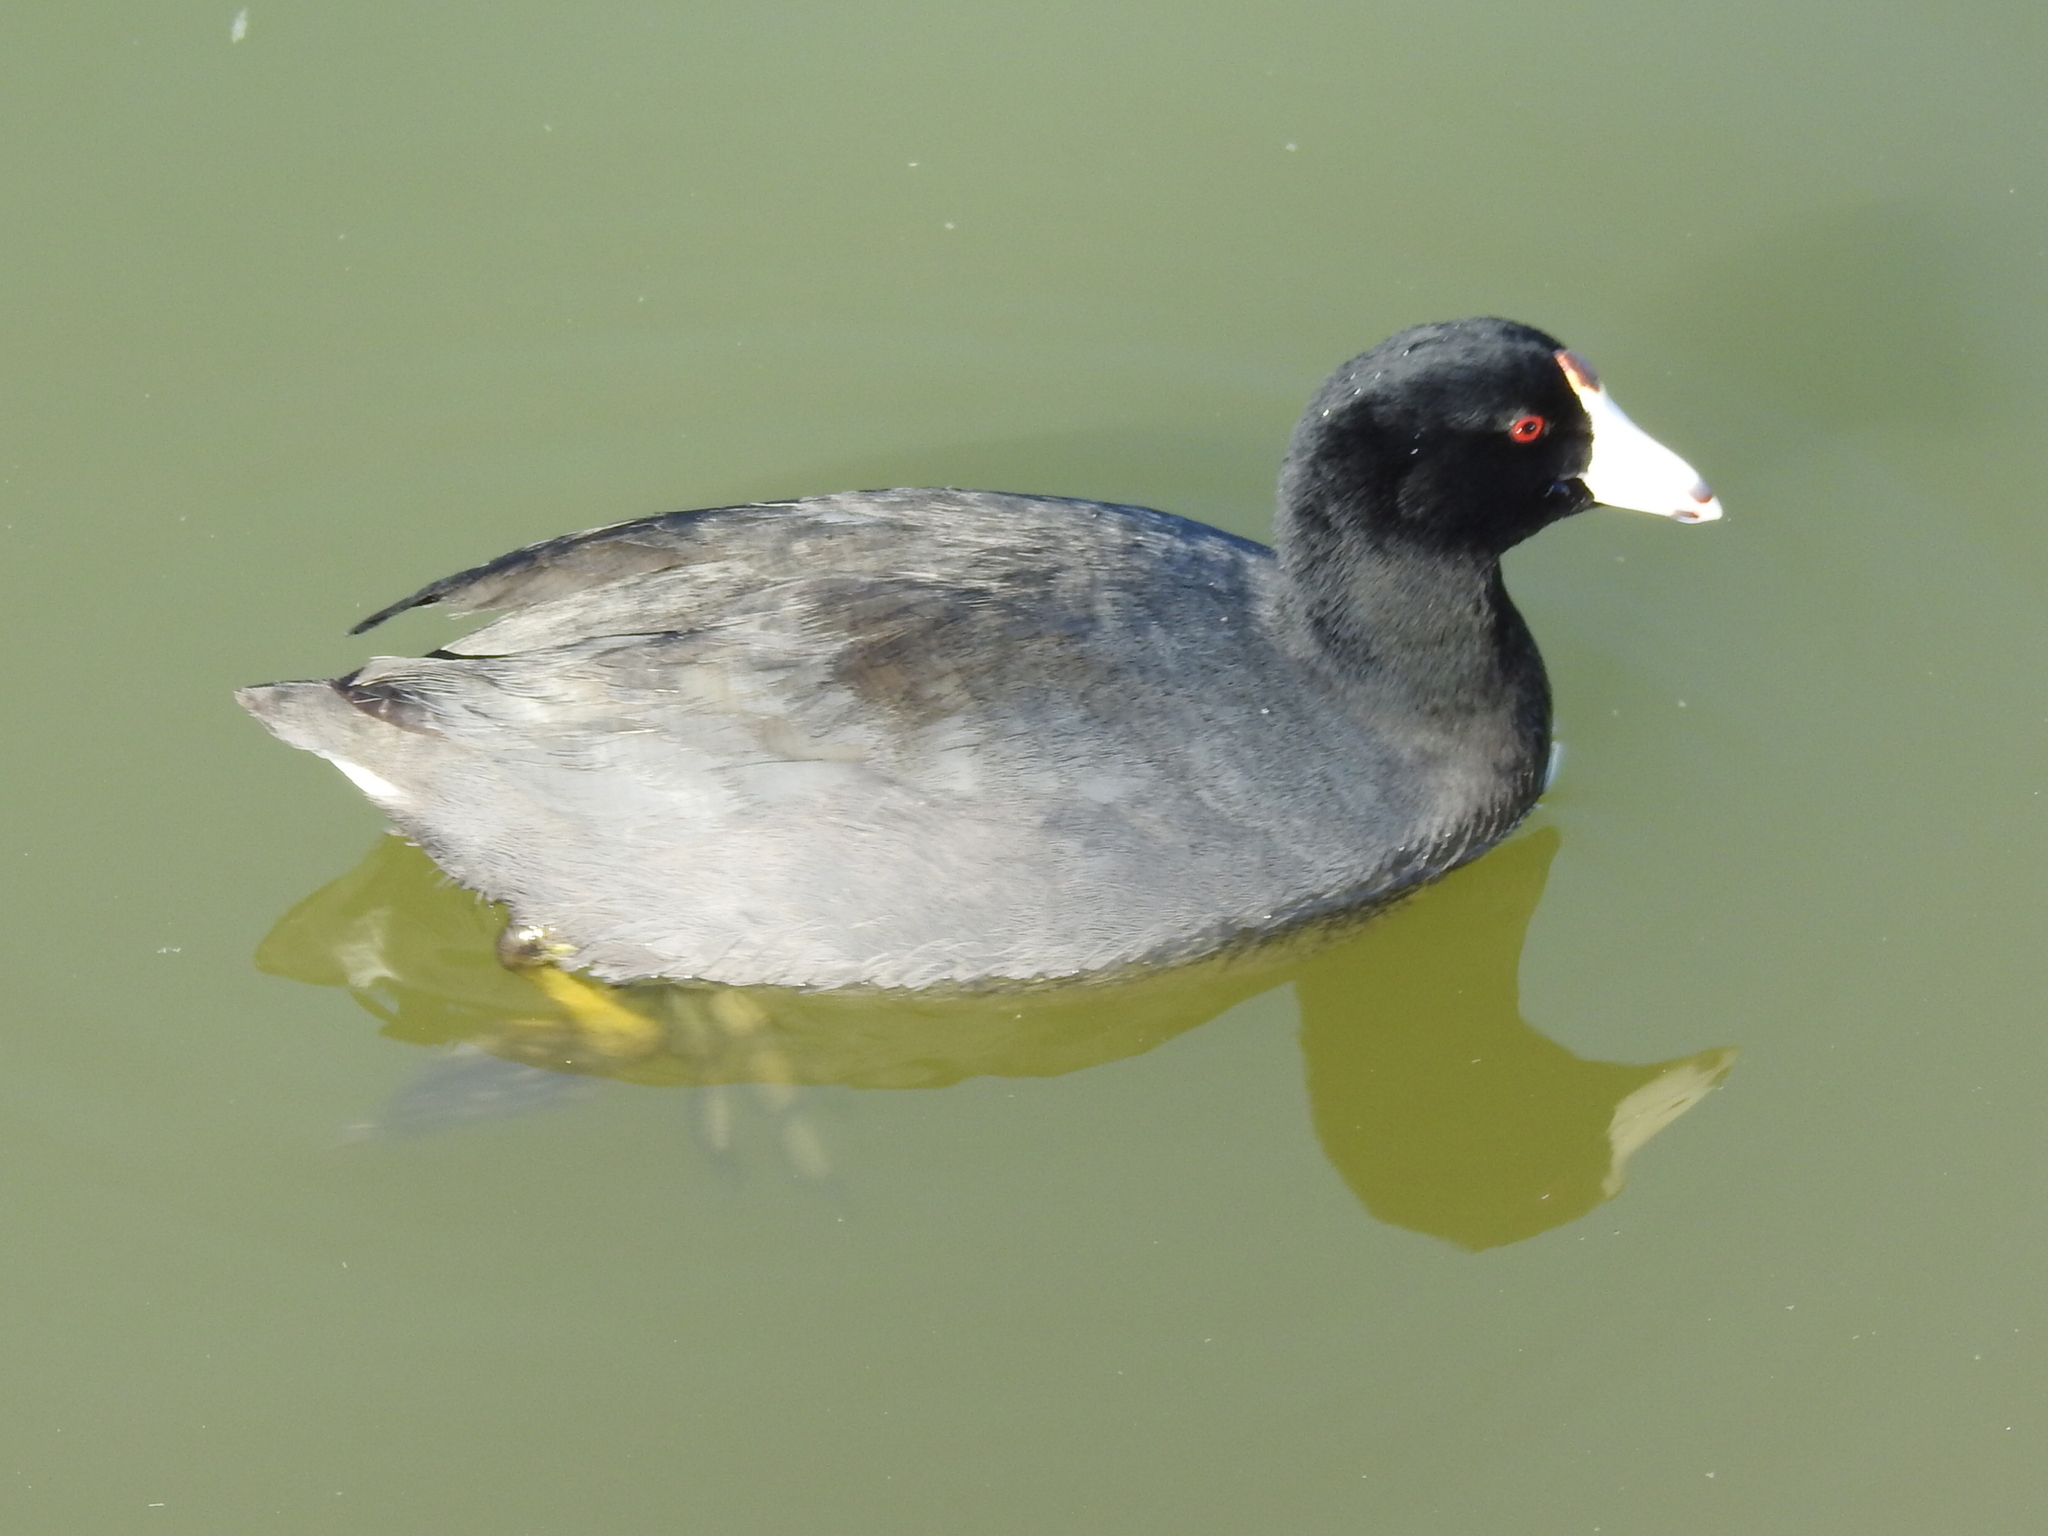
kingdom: Animalia
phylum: Chordata
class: Aves
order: Gruiformes
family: Rallidae
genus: Fulica
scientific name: Fulica americana
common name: American coot
